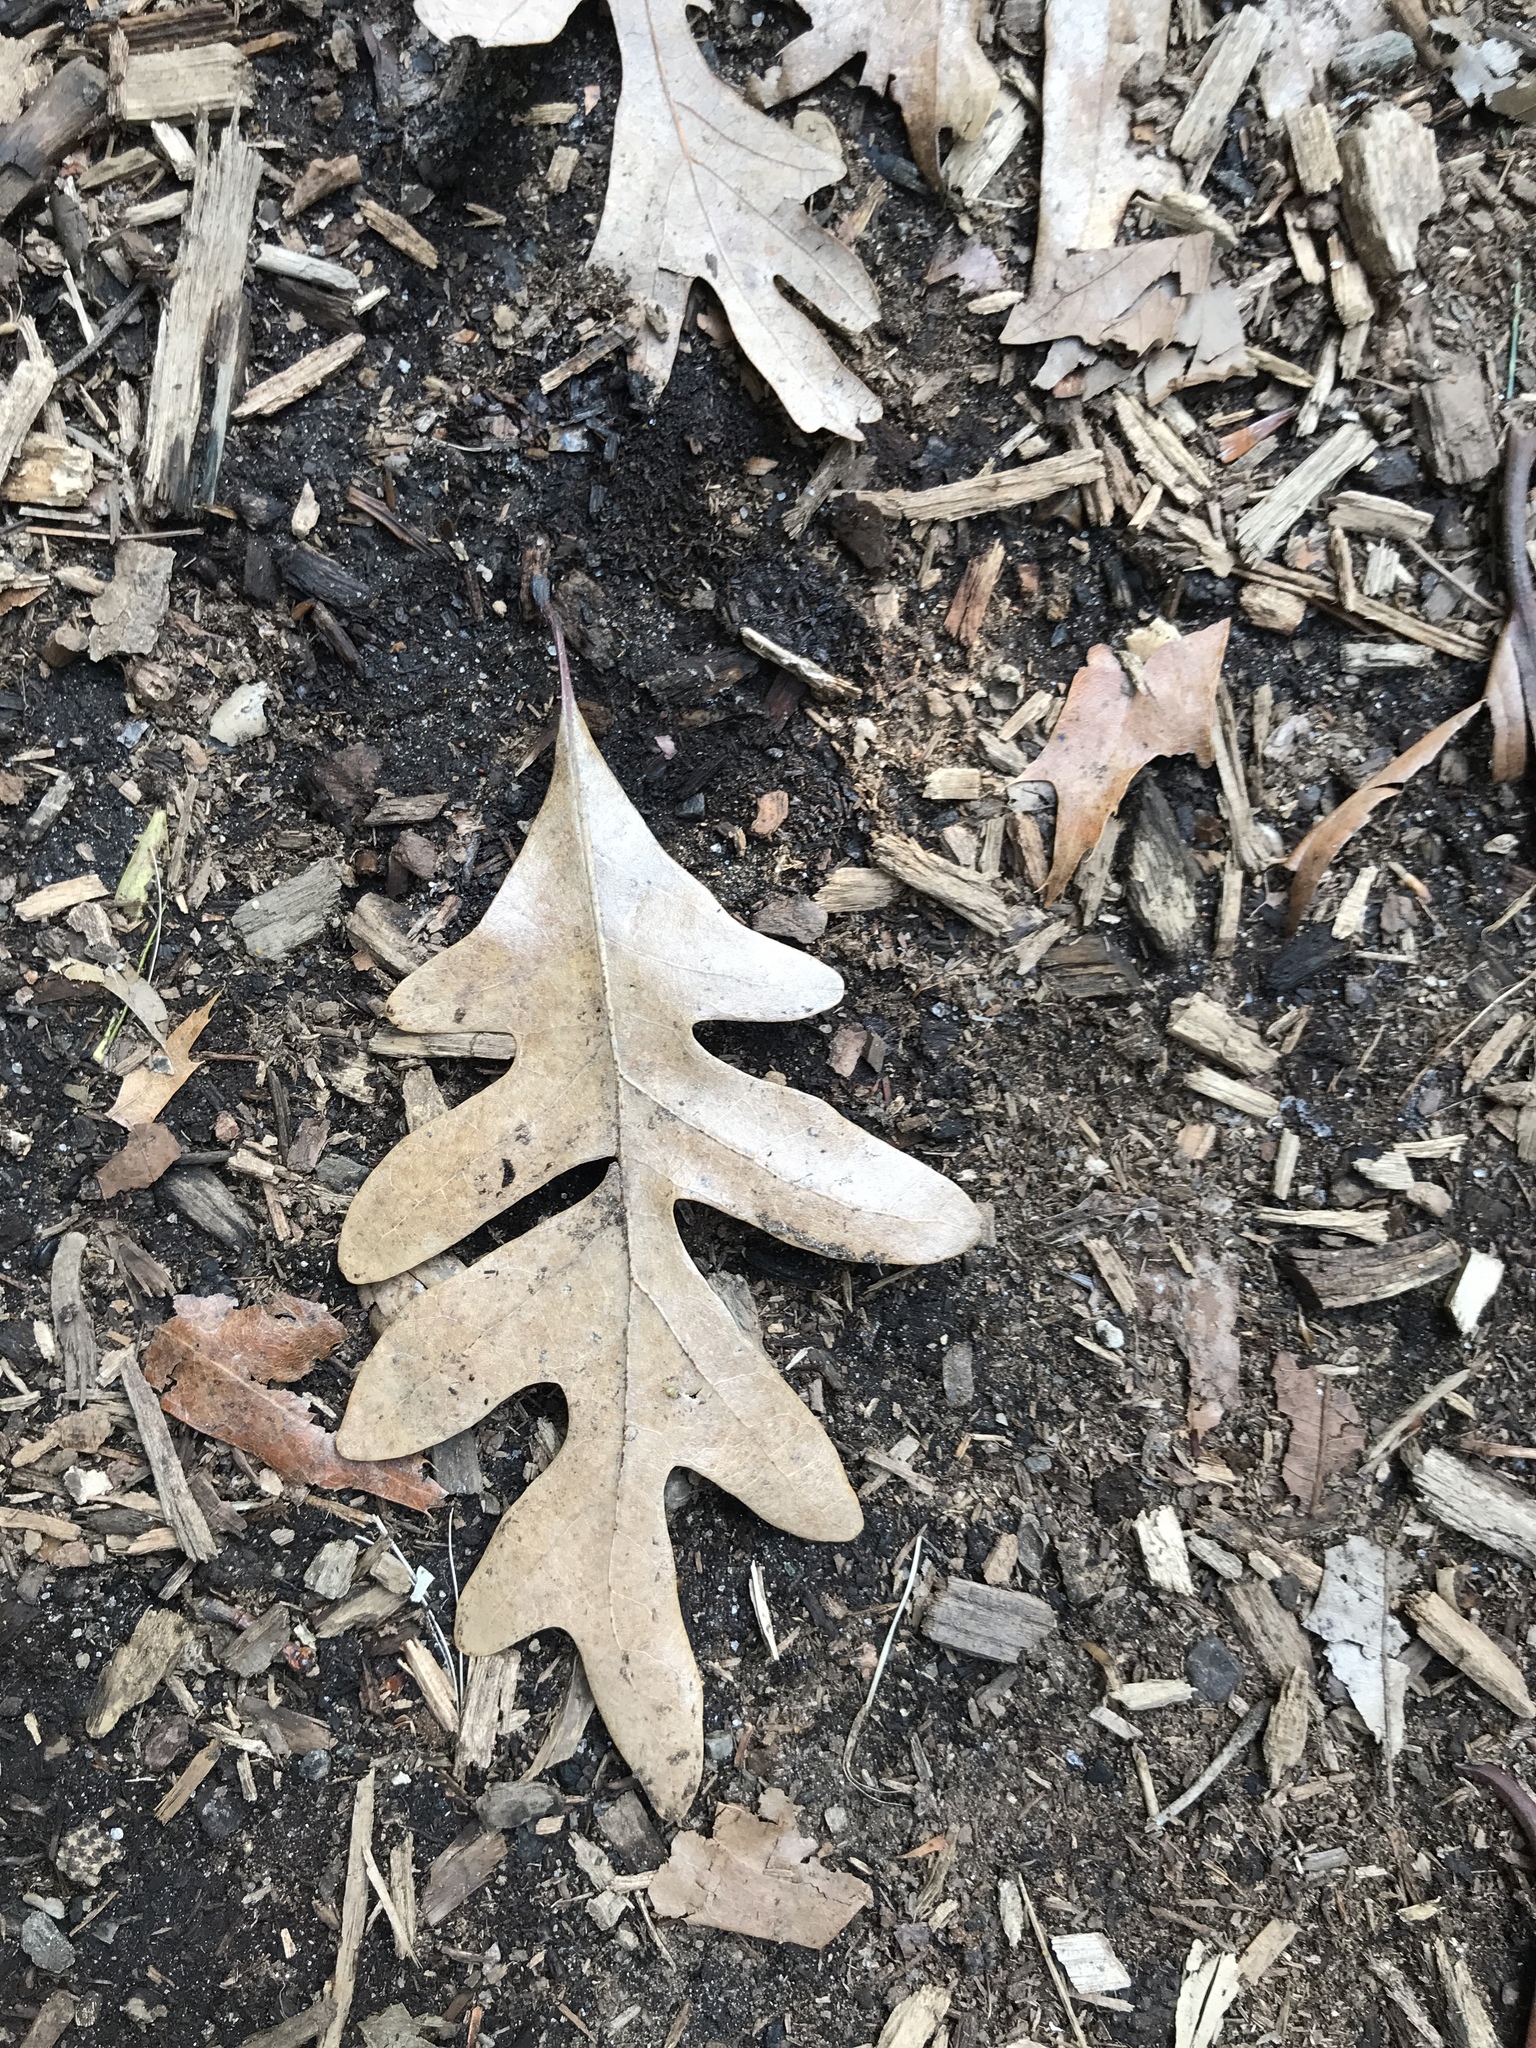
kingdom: Plantae
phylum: Tracheophyta
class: Magnoliopsida
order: Fagales
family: Fagaceae
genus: Quercus
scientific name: Quercus alba
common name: White oak
